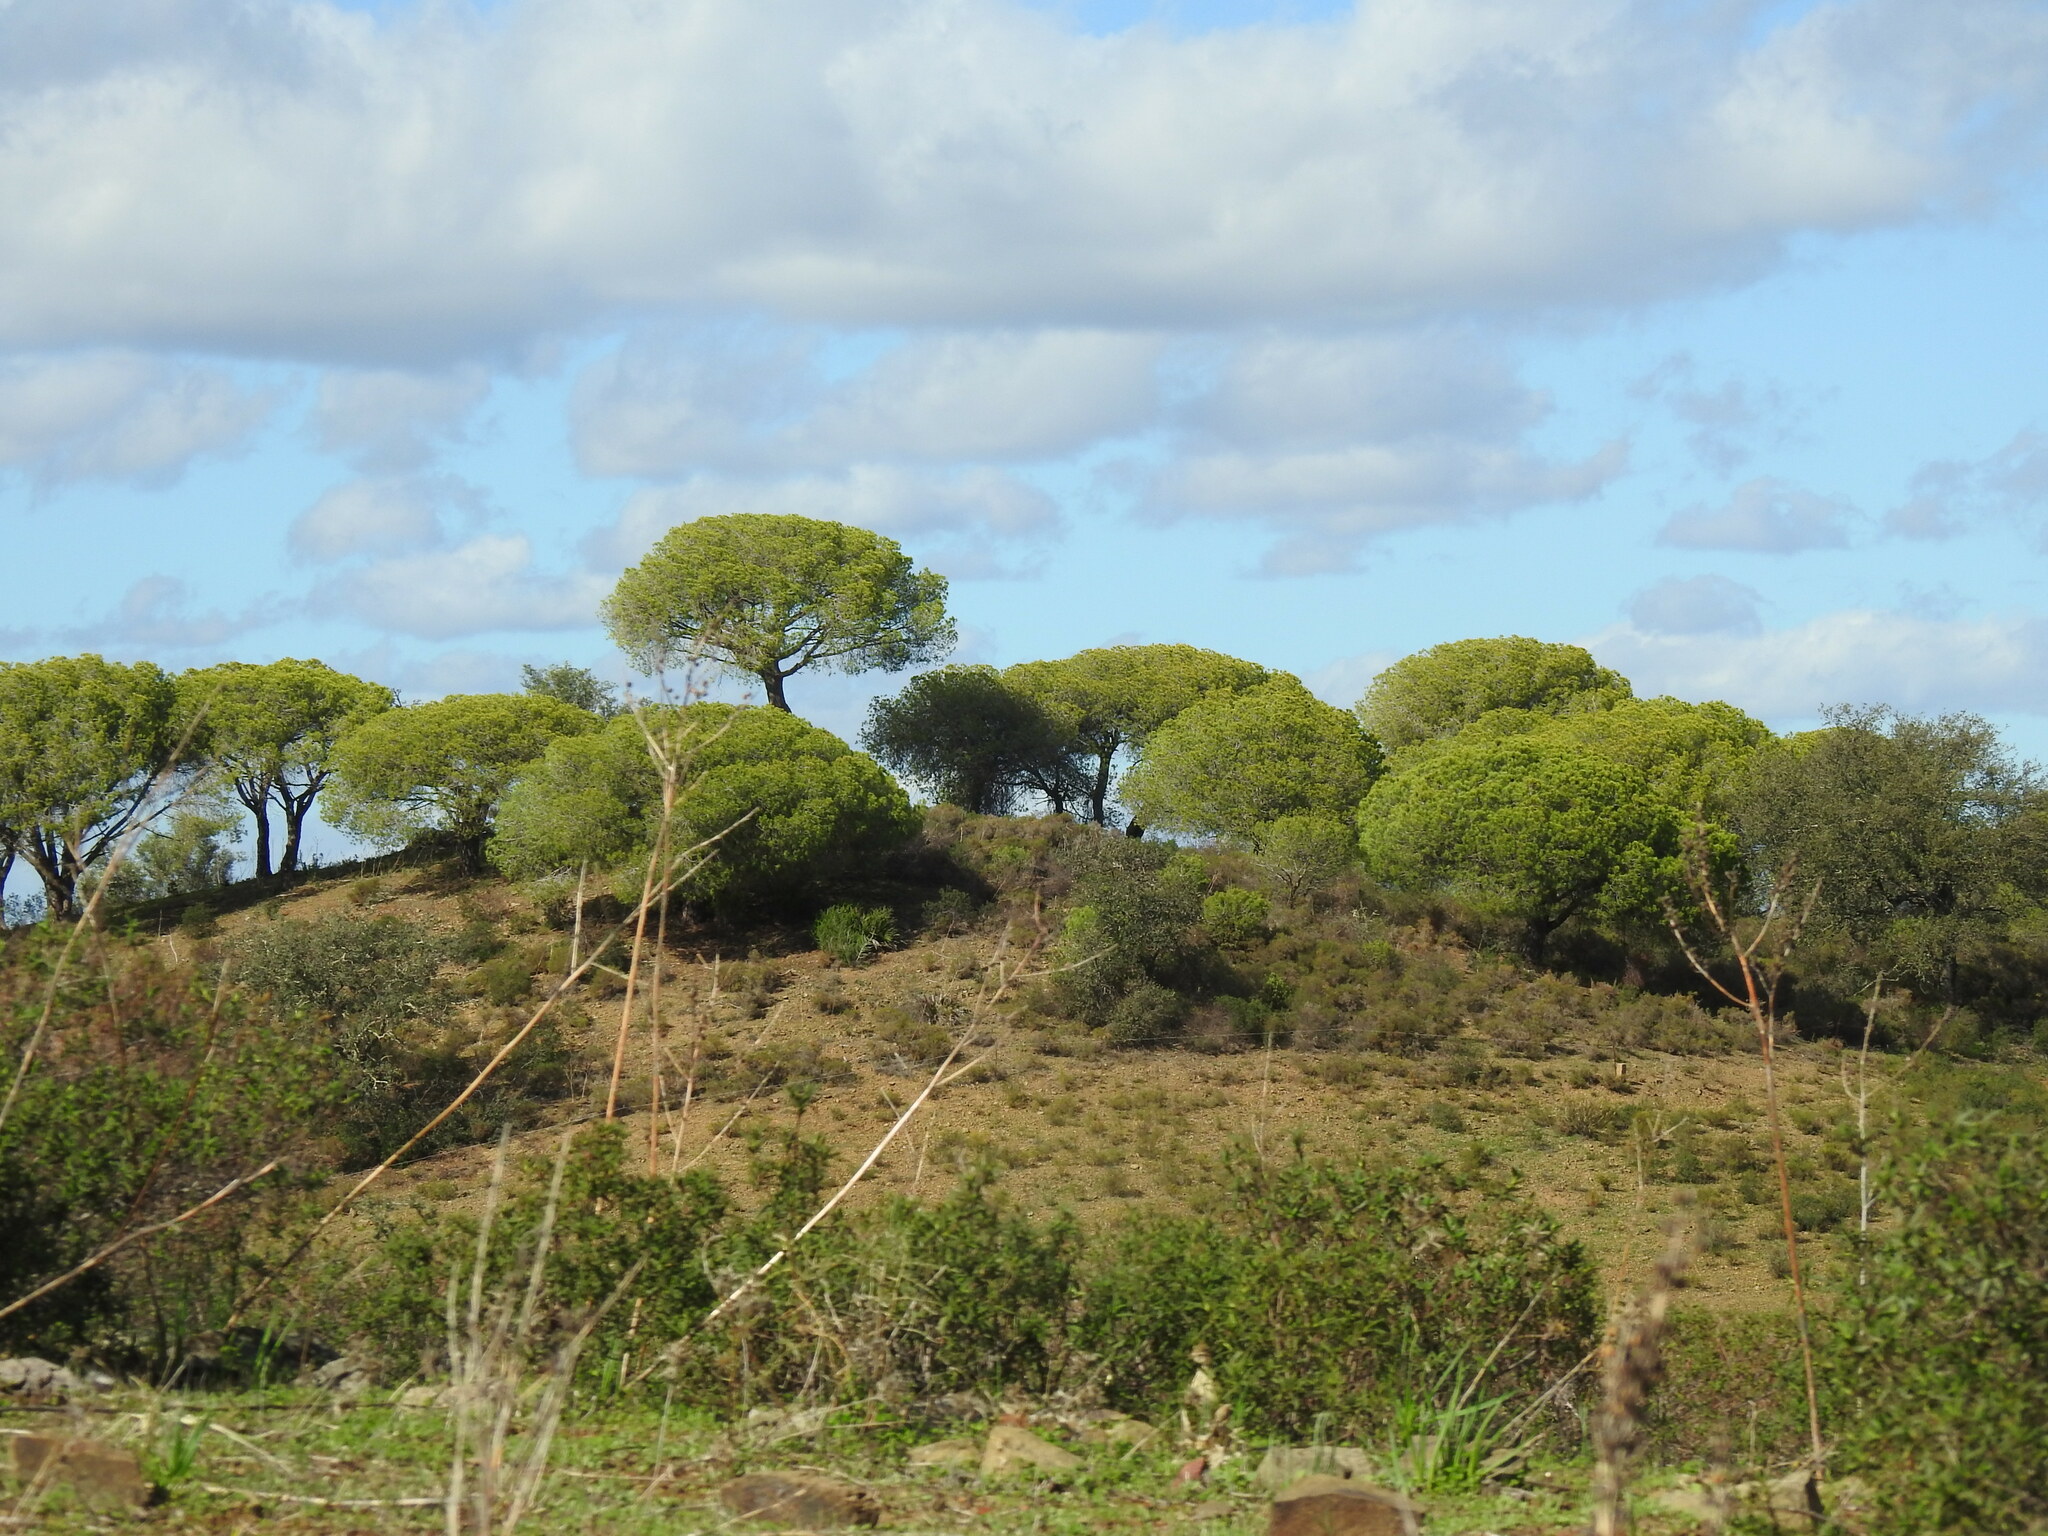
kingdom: Plantae
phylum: Tracheophyta
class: Pinopsida
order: Pinales
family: Pinaceae
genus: Pinus
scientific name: Pinus pinea
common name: Italian stone pine
